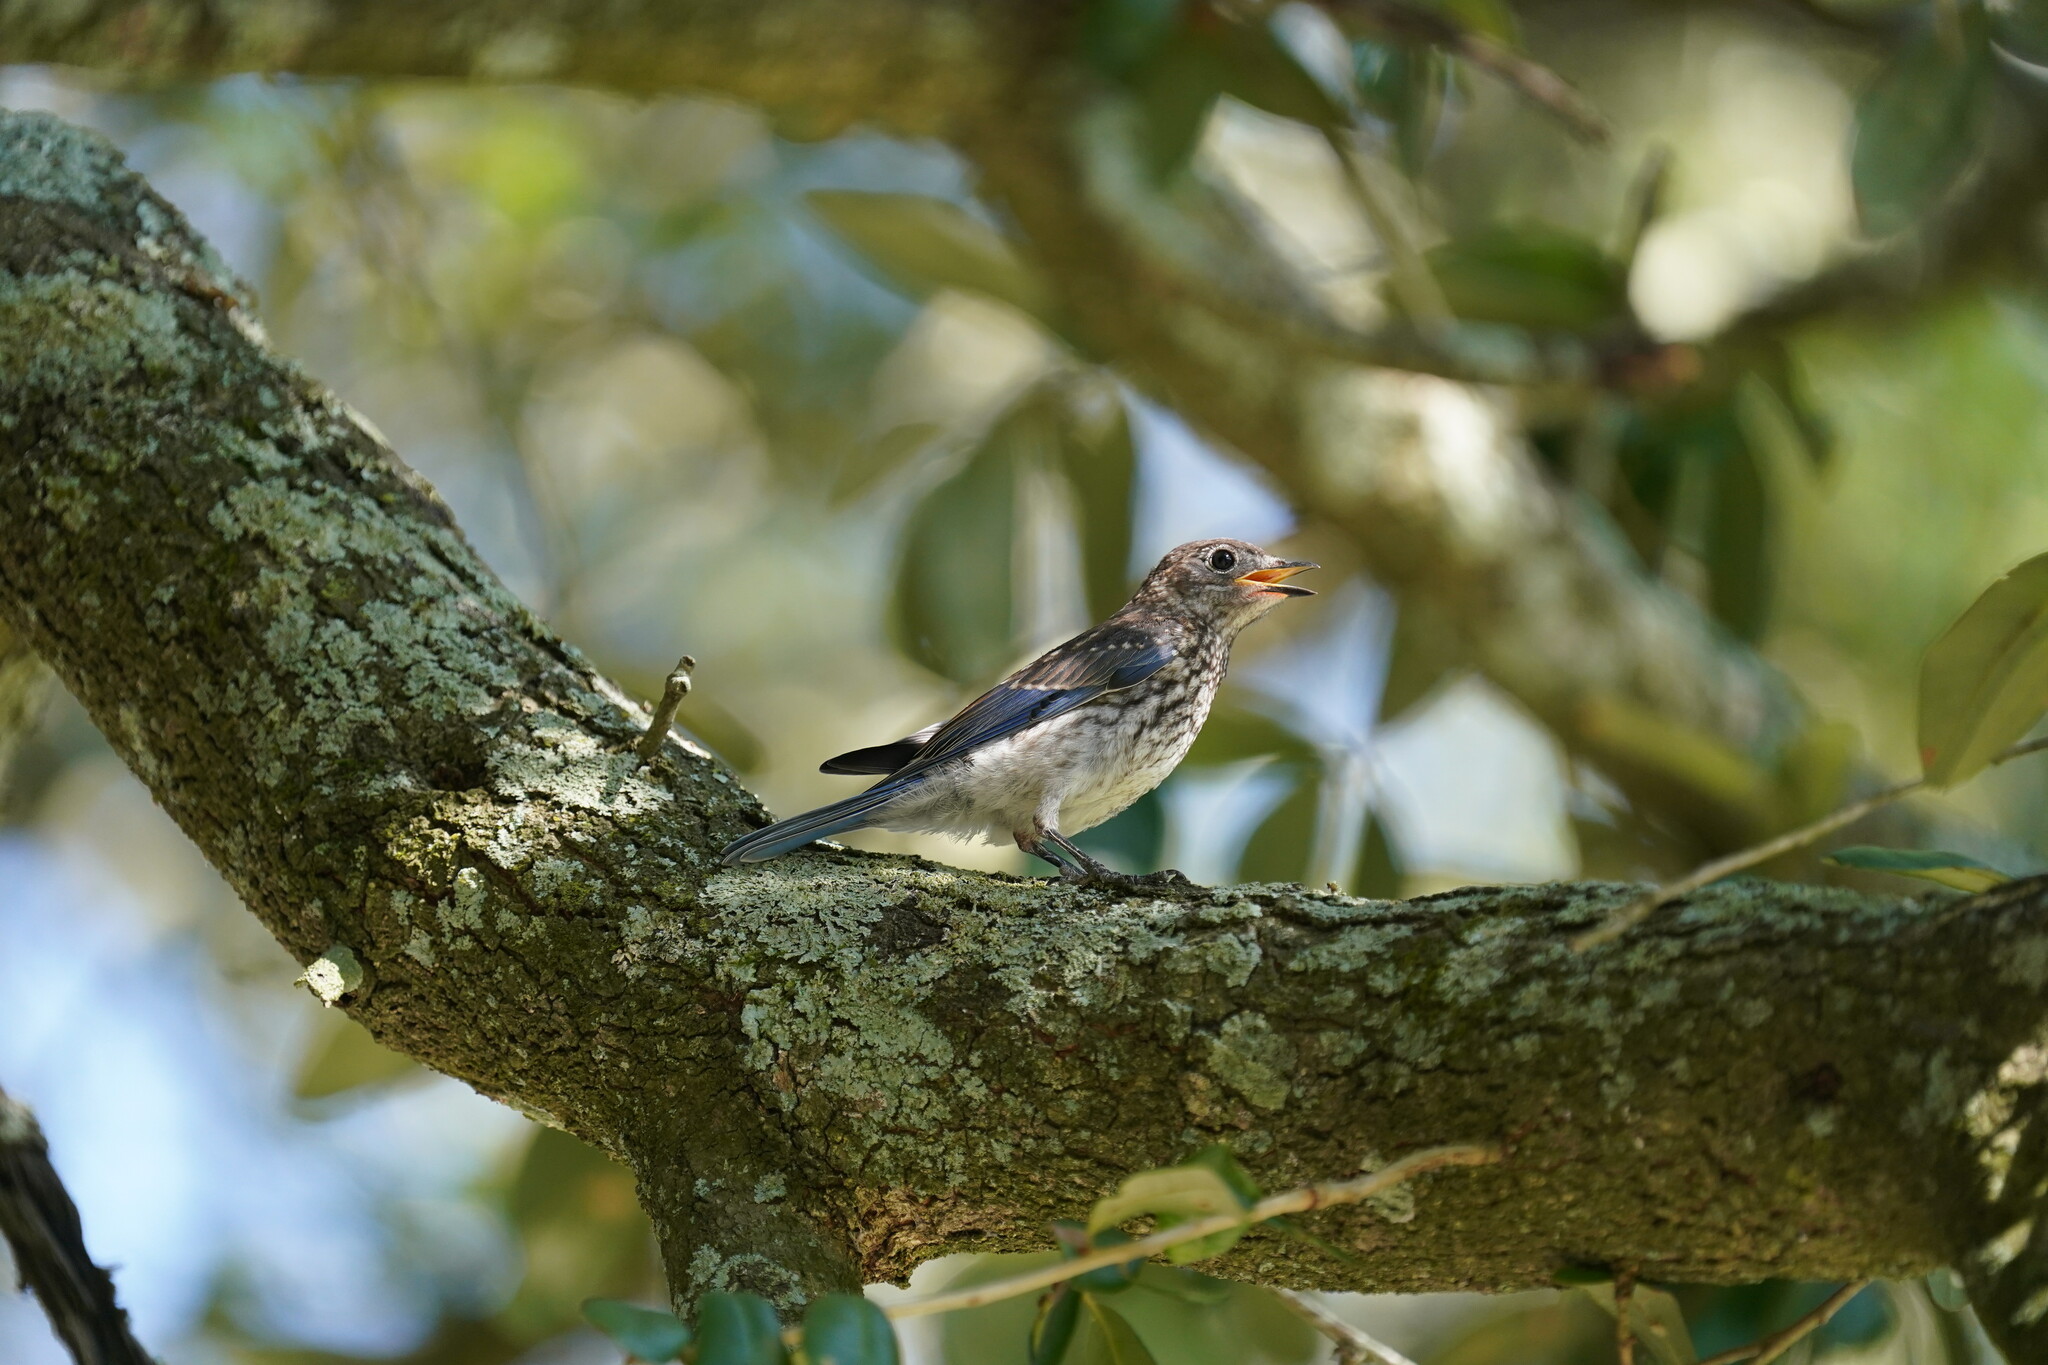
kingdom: Animalia
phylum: Chordata
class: Aves
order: Passeriformes
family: Turdidae
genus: Sialia
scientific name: Sialia sialis
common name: Eastern bluebird
